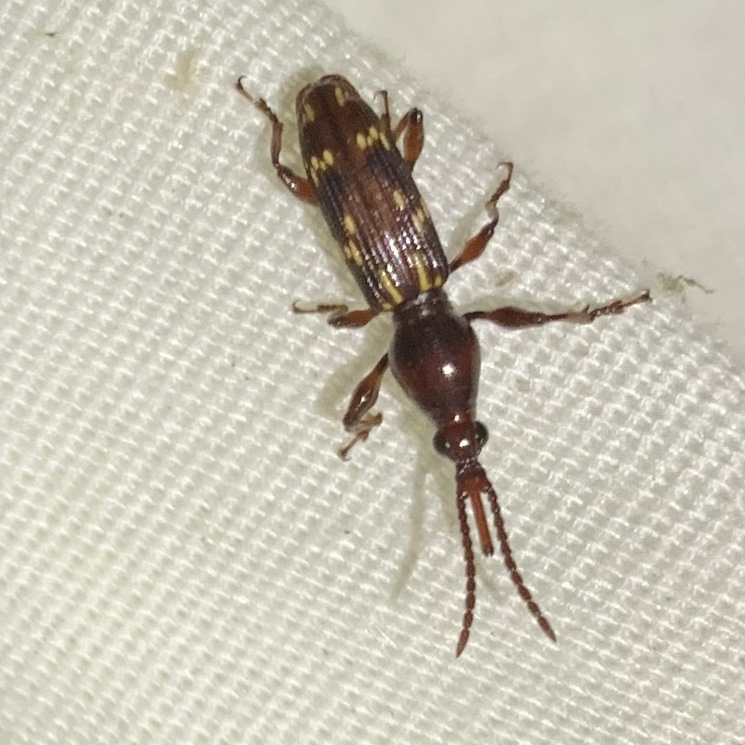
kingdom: Animalia
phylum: Arthropoda
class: Insecta
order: Coleoptera
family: Brentidae
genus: Arrenodes
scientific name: Arrenodes minutus
